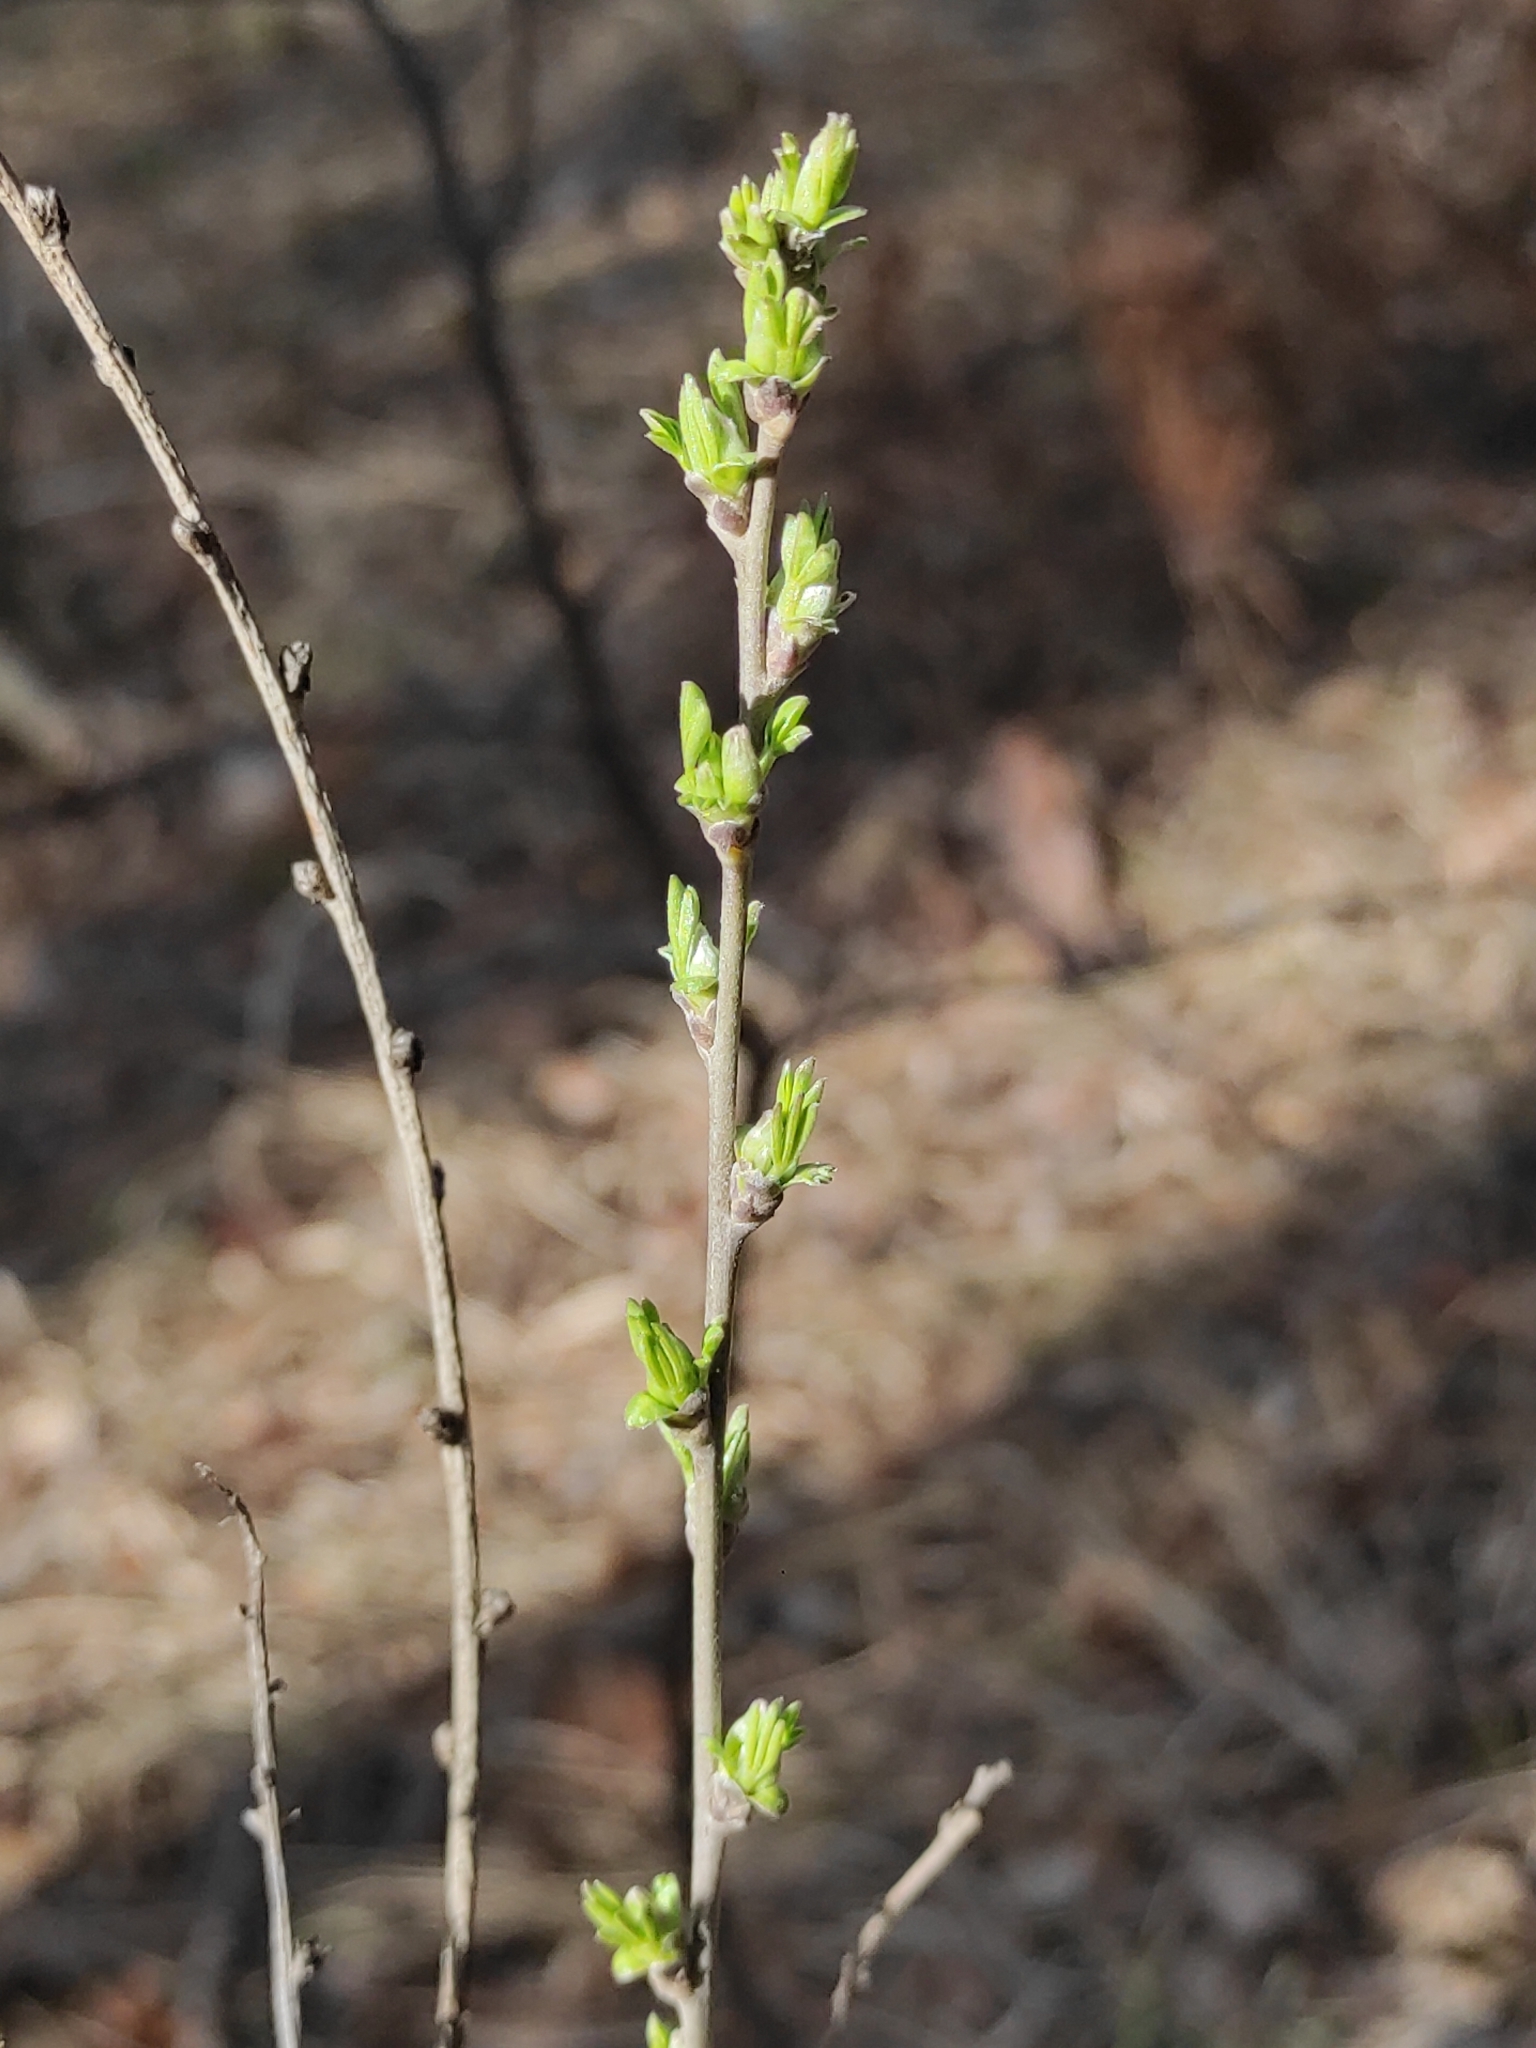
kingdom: Plantae
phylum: Tracheophyta
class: Magnoliopsida
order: Rosales
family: Ulmaceae
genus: Ulmus
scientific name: Ulmus pumila
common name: Siberian elm
